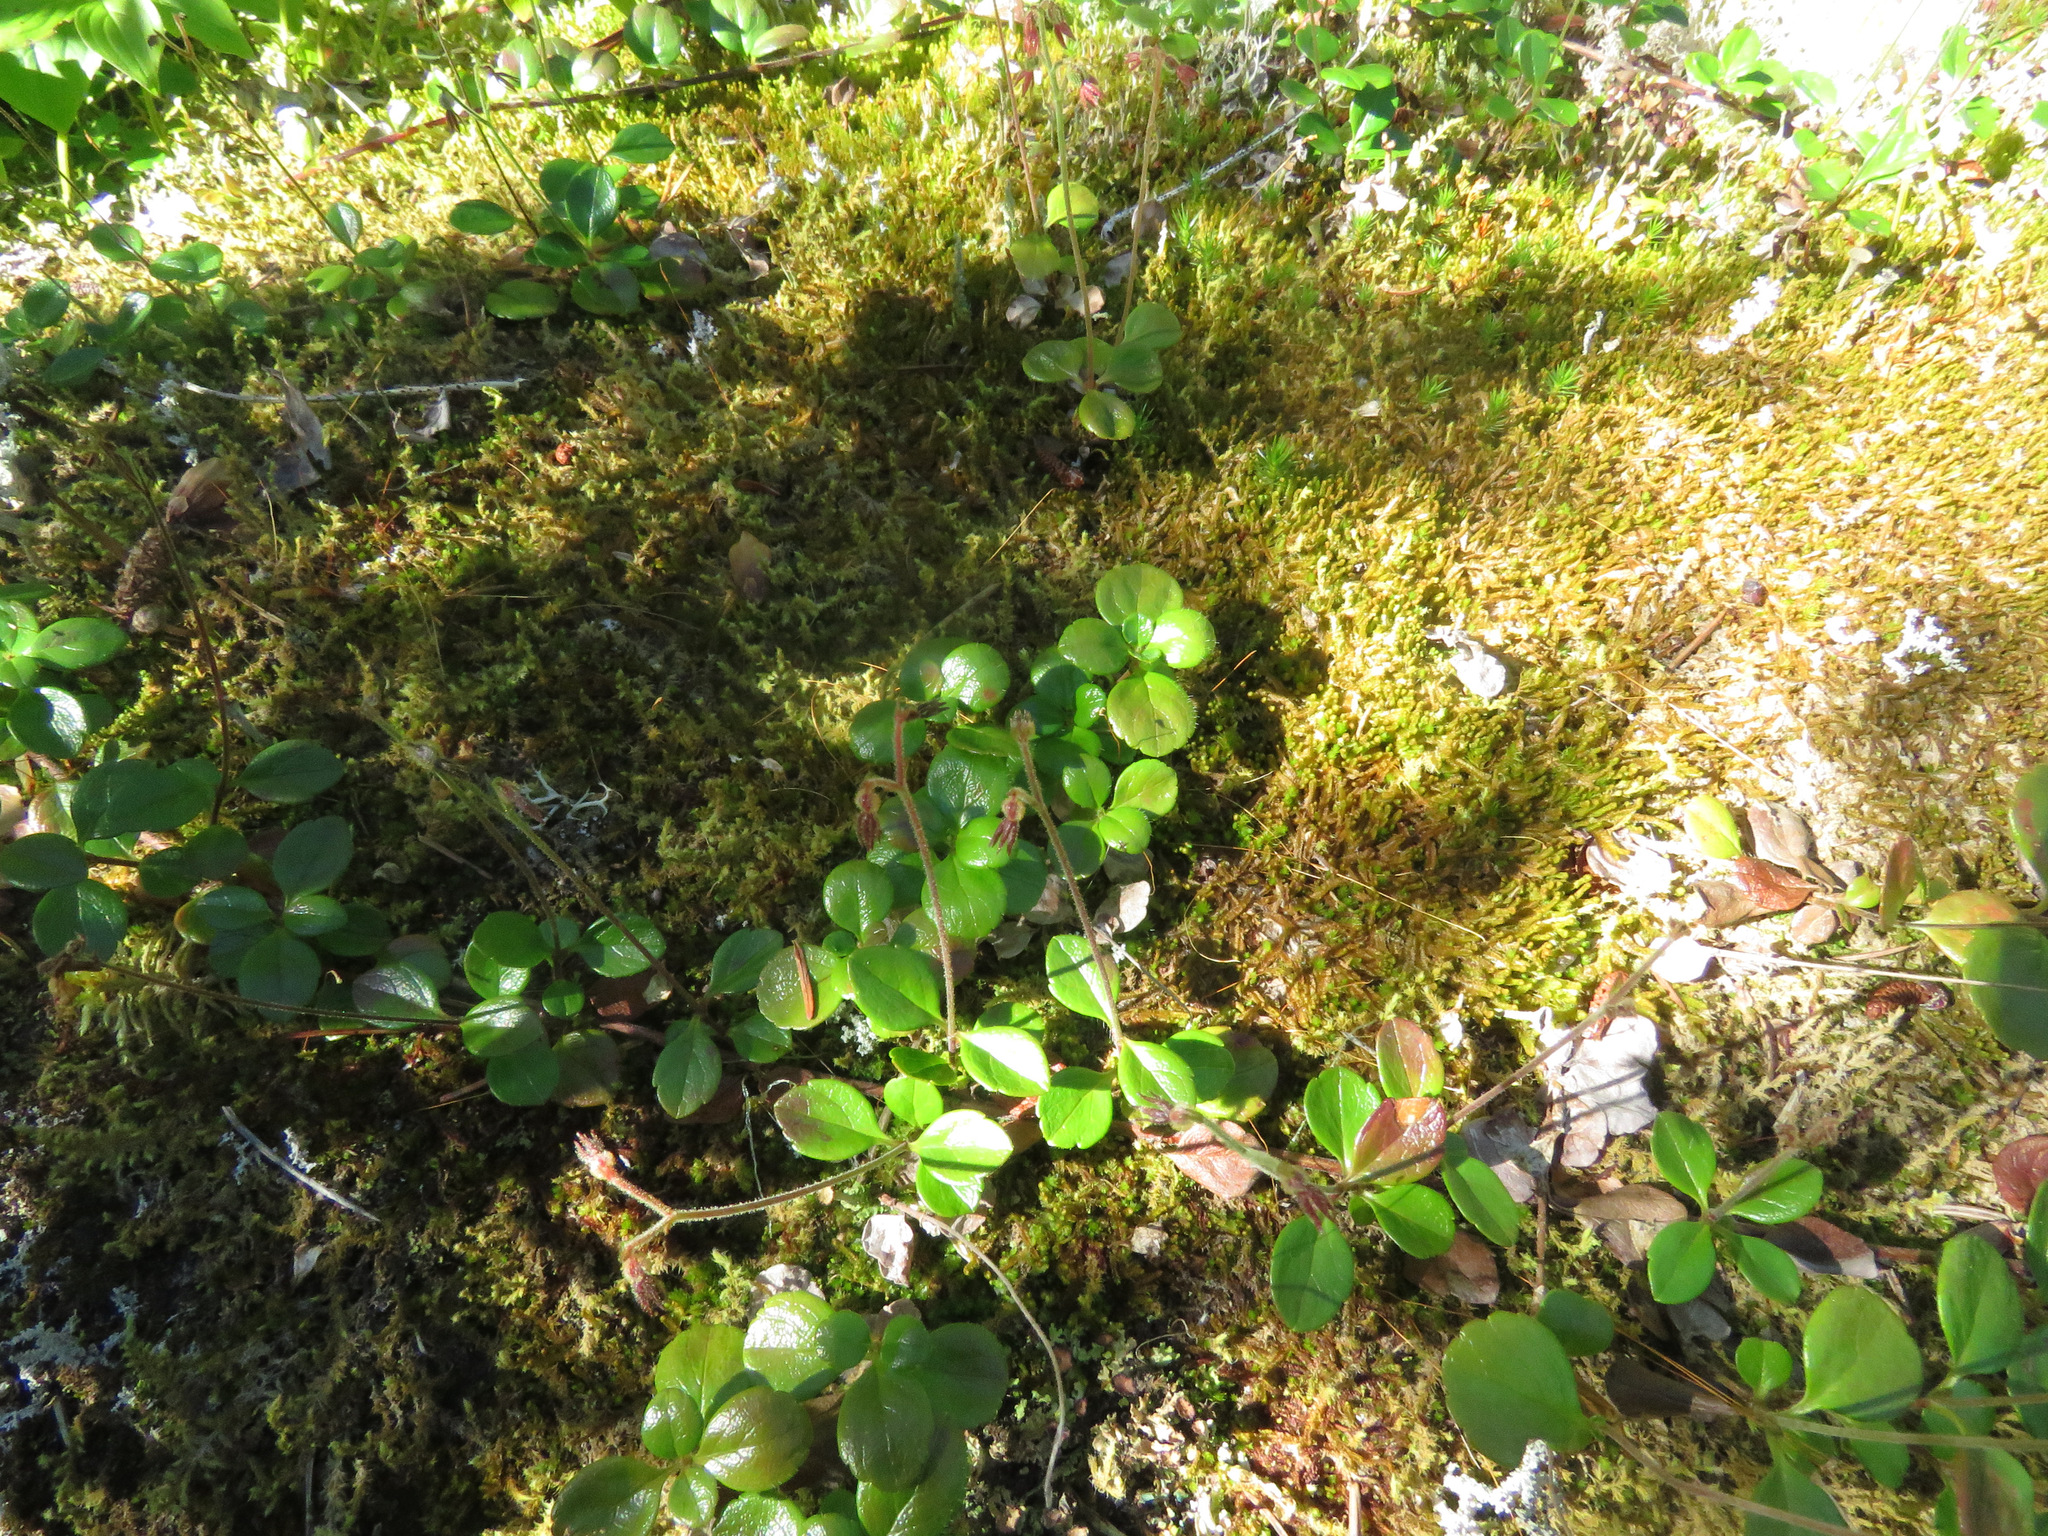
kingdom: Plantae
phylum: Tracheophyta
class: Magnoliopsida
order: Dipsacales
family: Caprifoliaceae
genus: Linnaea
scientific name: Linnaea borealis
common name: Twinflower
